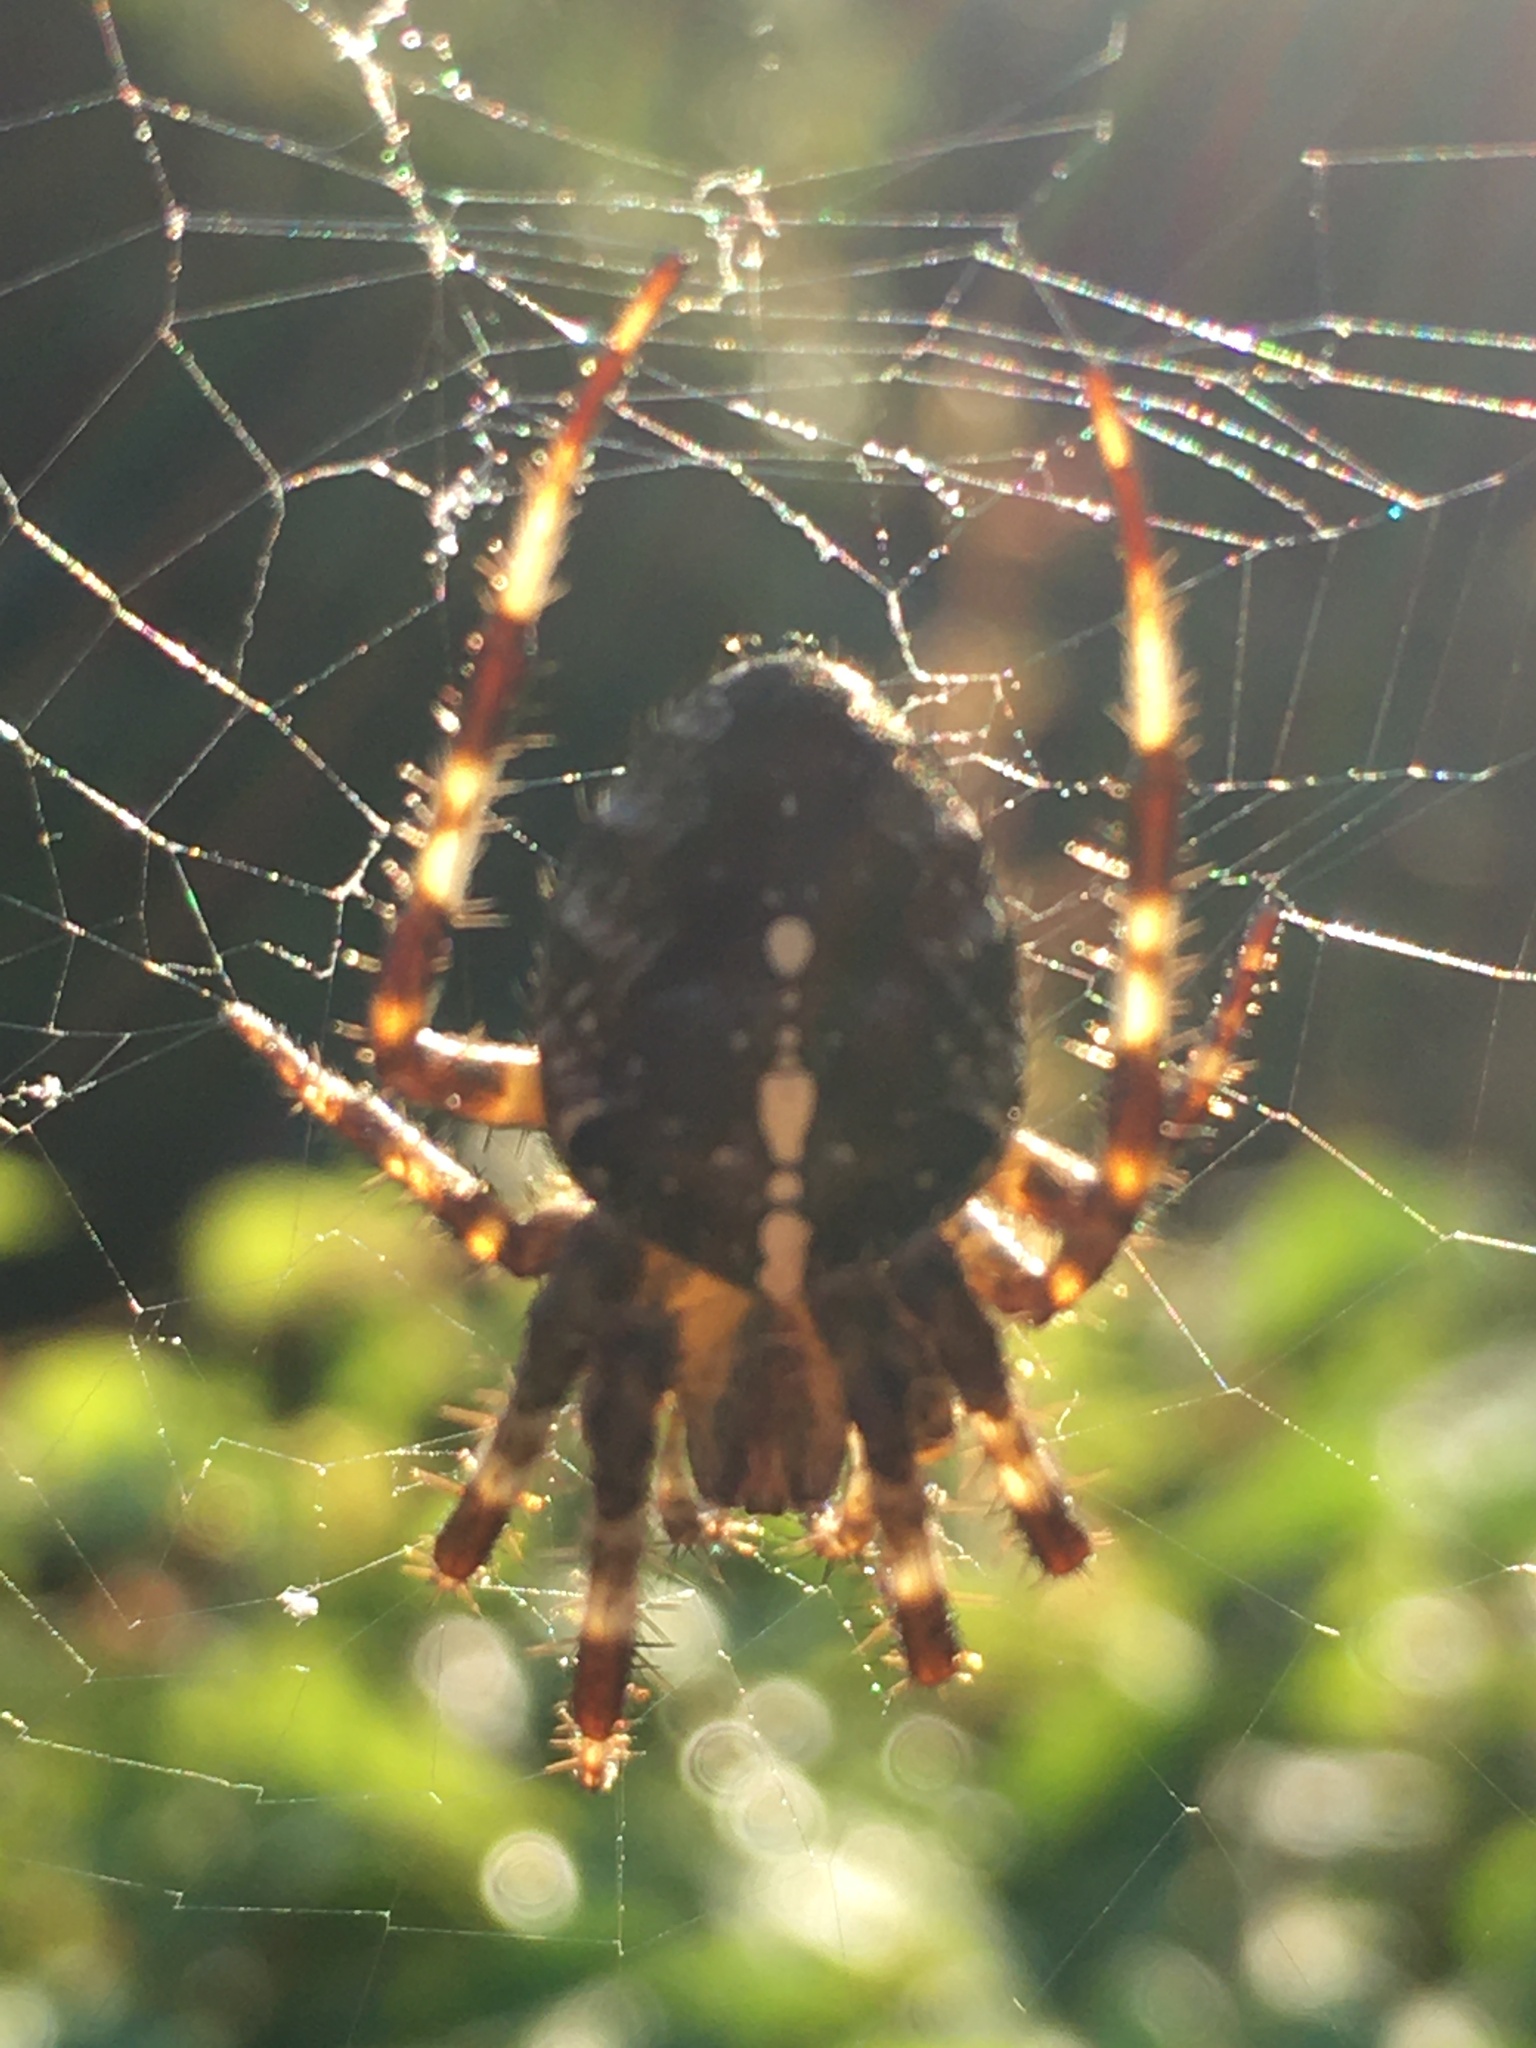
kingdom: Animalia
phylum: Arthropoda
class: Arachnida
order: Araneae
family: Araneidae
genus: Araneus
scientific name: Araneus diadematus
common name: Cross orbweaver
